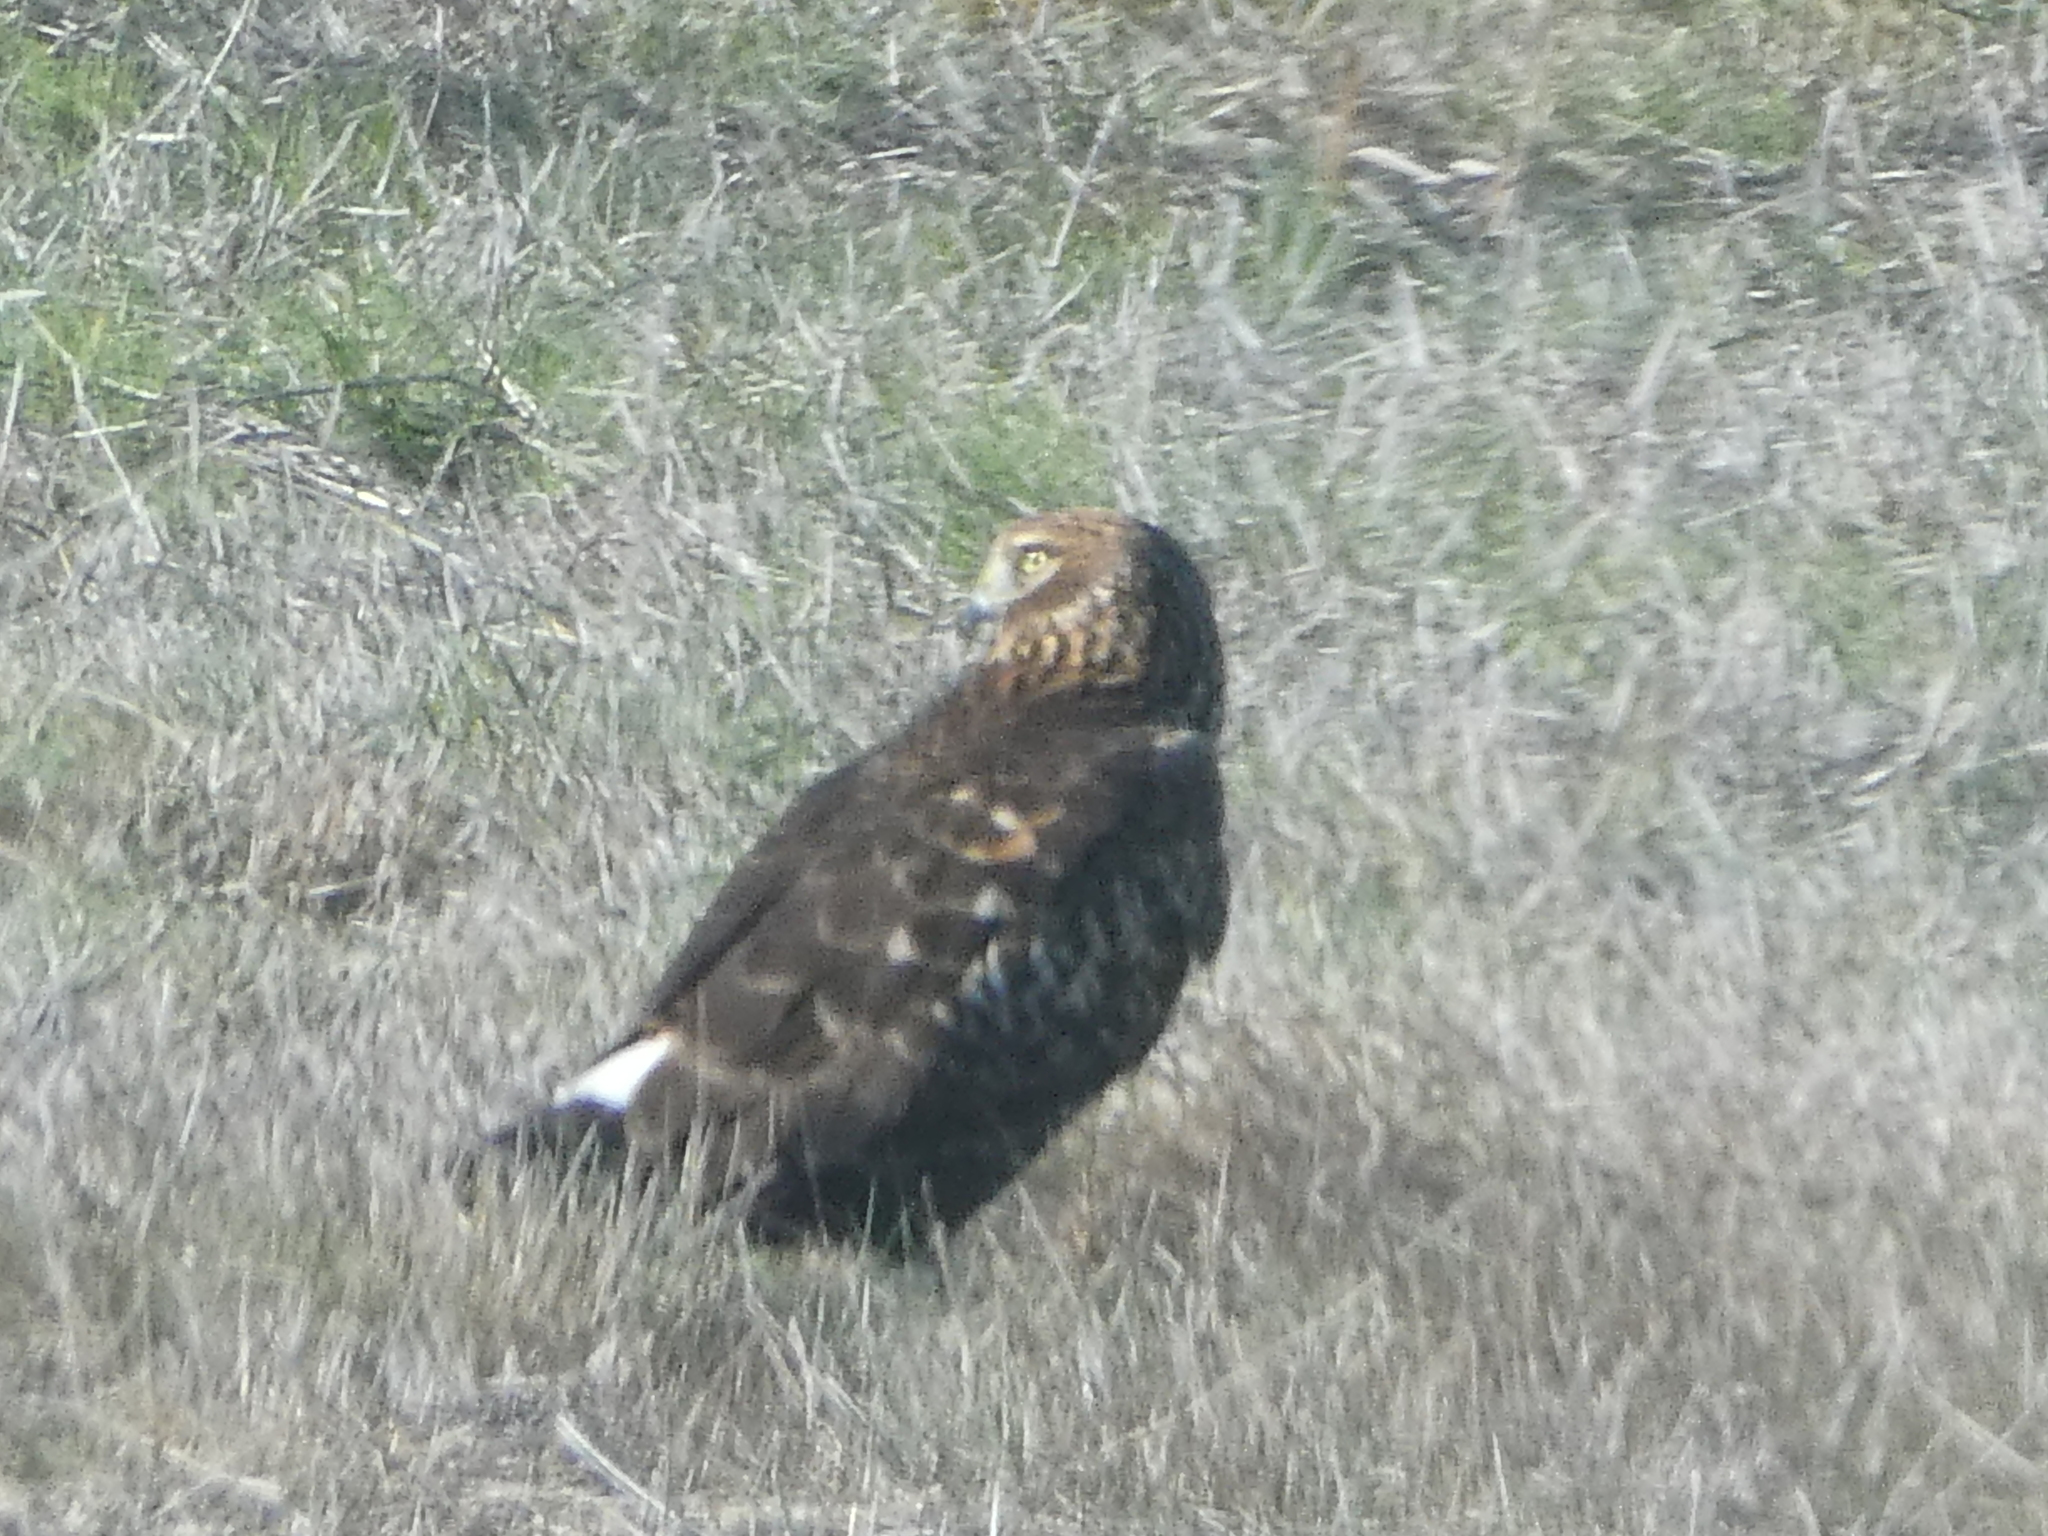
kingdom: Animalia
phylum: Chordata
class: Aves
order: Accipitriformes
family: Accipitridae
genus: Circus
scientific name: Circus cyaneus
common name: Hen harrier
